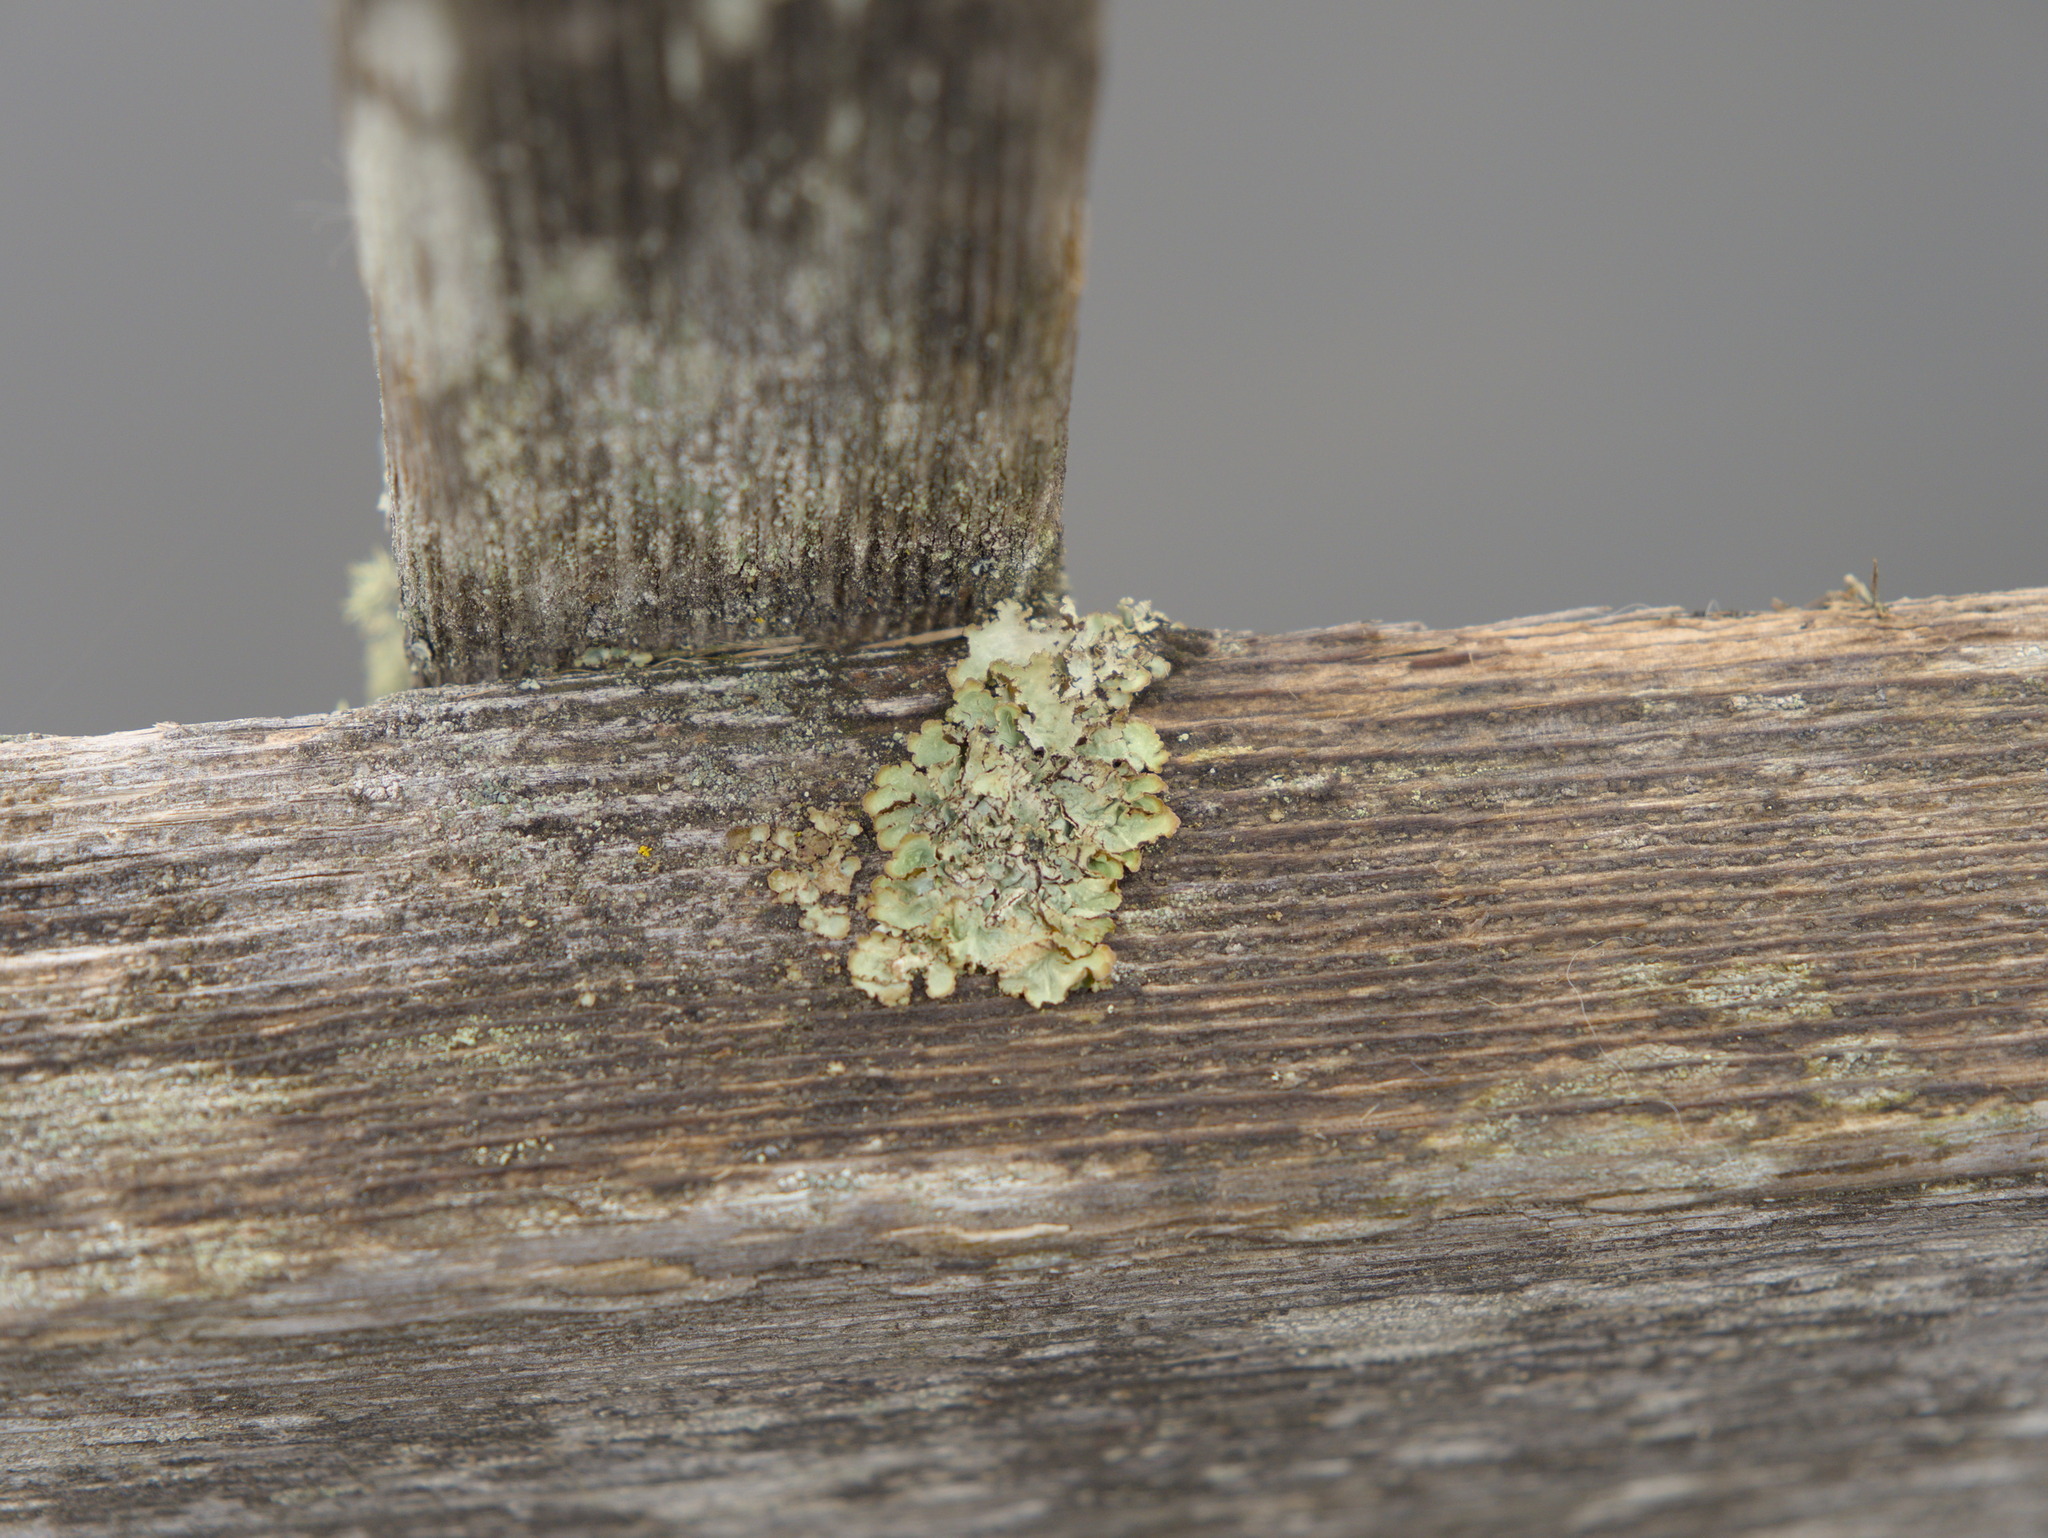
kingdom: Fungi
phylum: Ascomycota
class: Lecanoromycetes
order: Lecanorales
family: Parmeliaceae
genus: Platismatia
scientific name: Platismatia glauca
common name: Varied rag lichen
